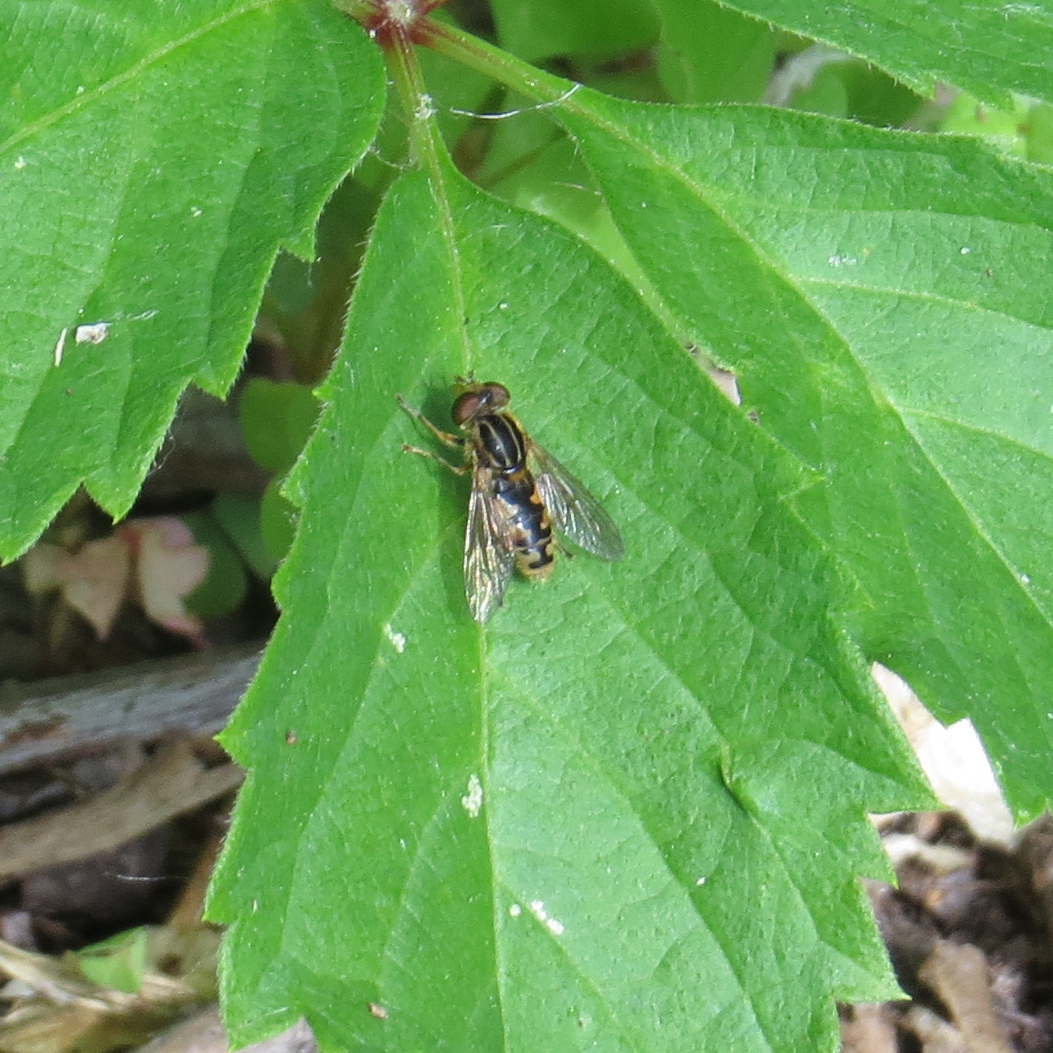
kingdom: Animalia
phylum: Arthropoda
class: Insecta
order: Diptera
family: Syrphidae
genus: Eurimyia
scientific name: Eurimyia stipatus
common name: Long-nosed swamp fly
